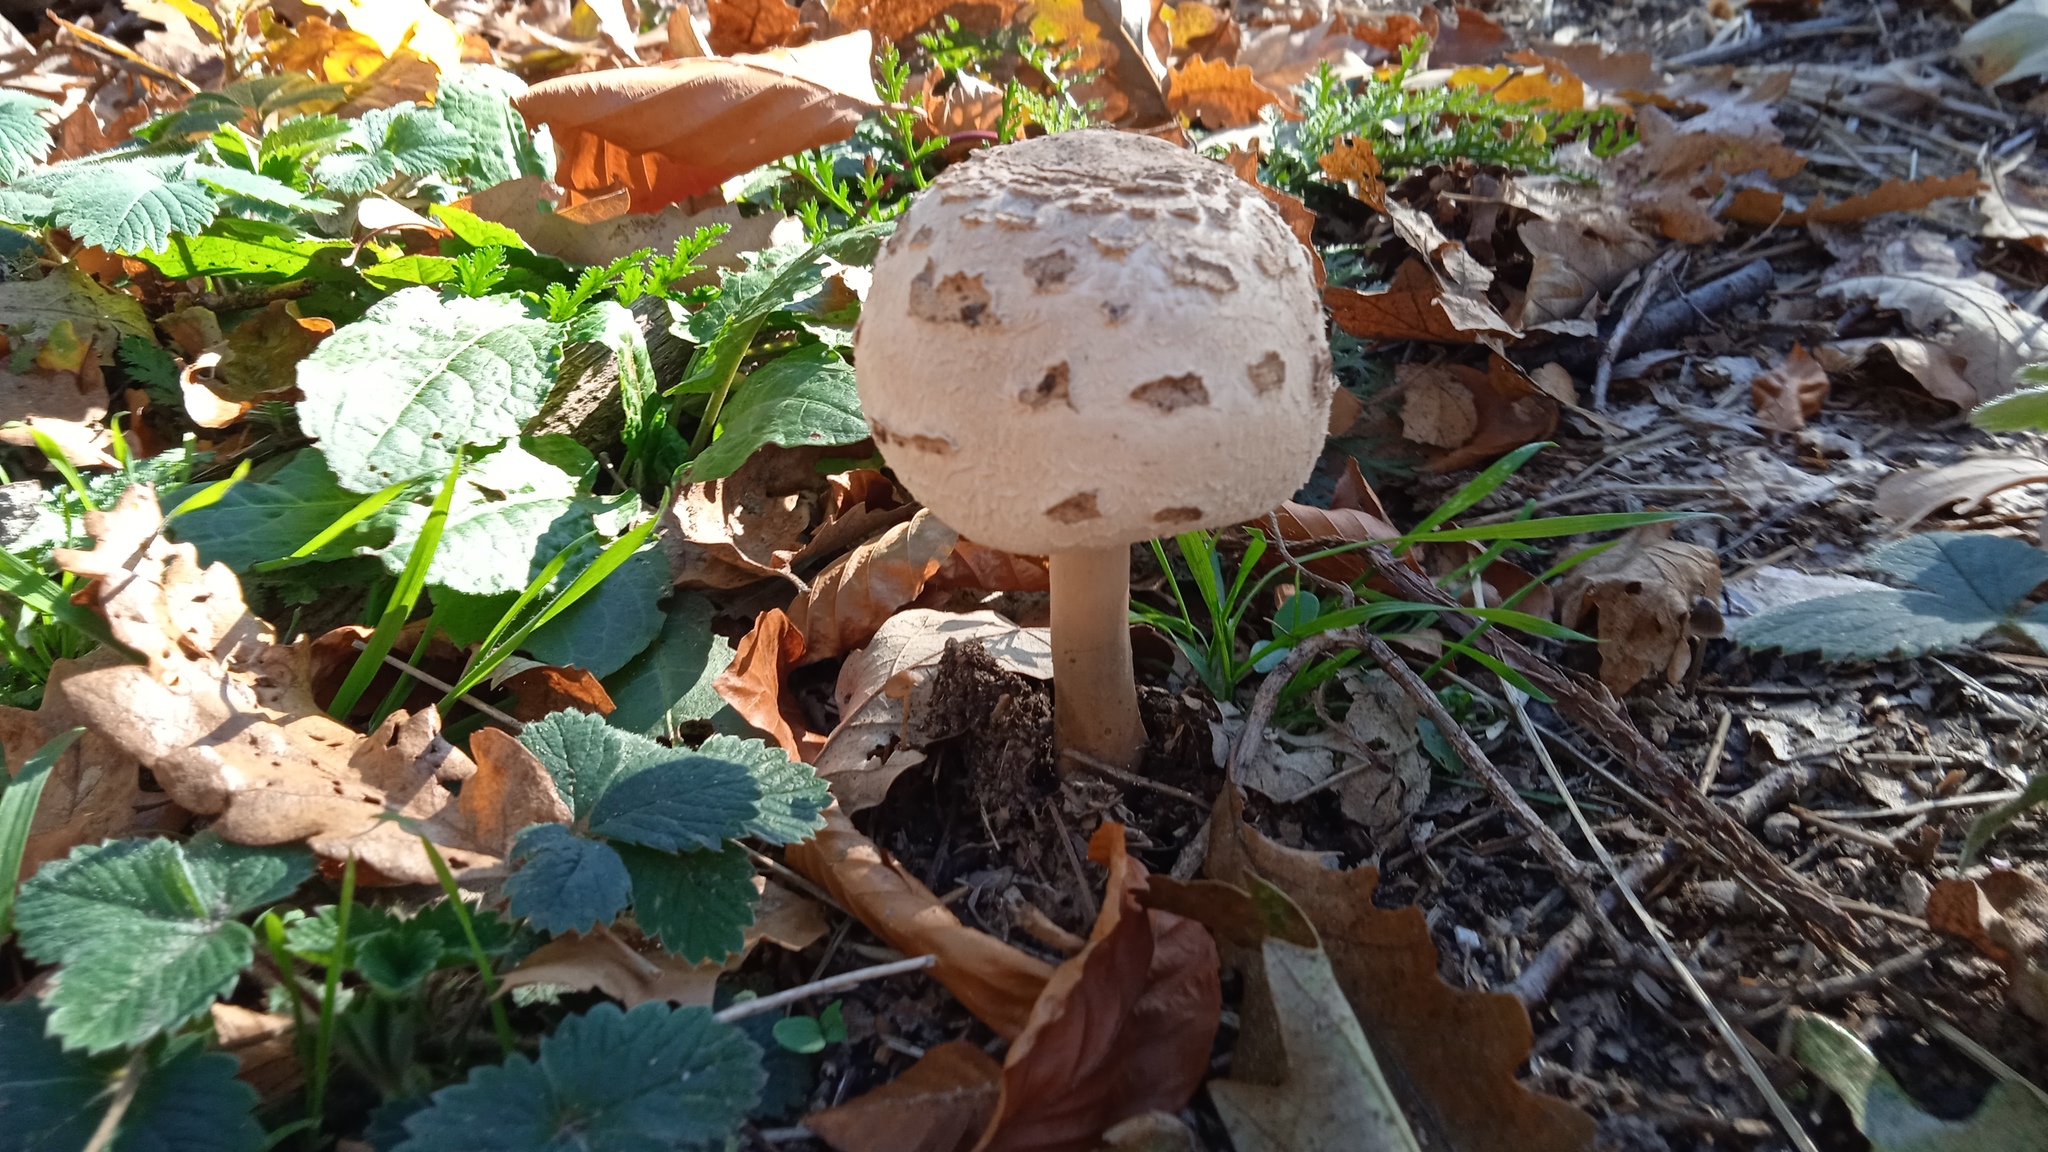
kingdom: Fungi
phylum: Basidiomycota
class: Agaricomycetes
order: Agaricales
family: Agaricaceae
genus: Macrolepiota
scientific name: Macrolepiota fuliginosa
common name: Sooty parasol
